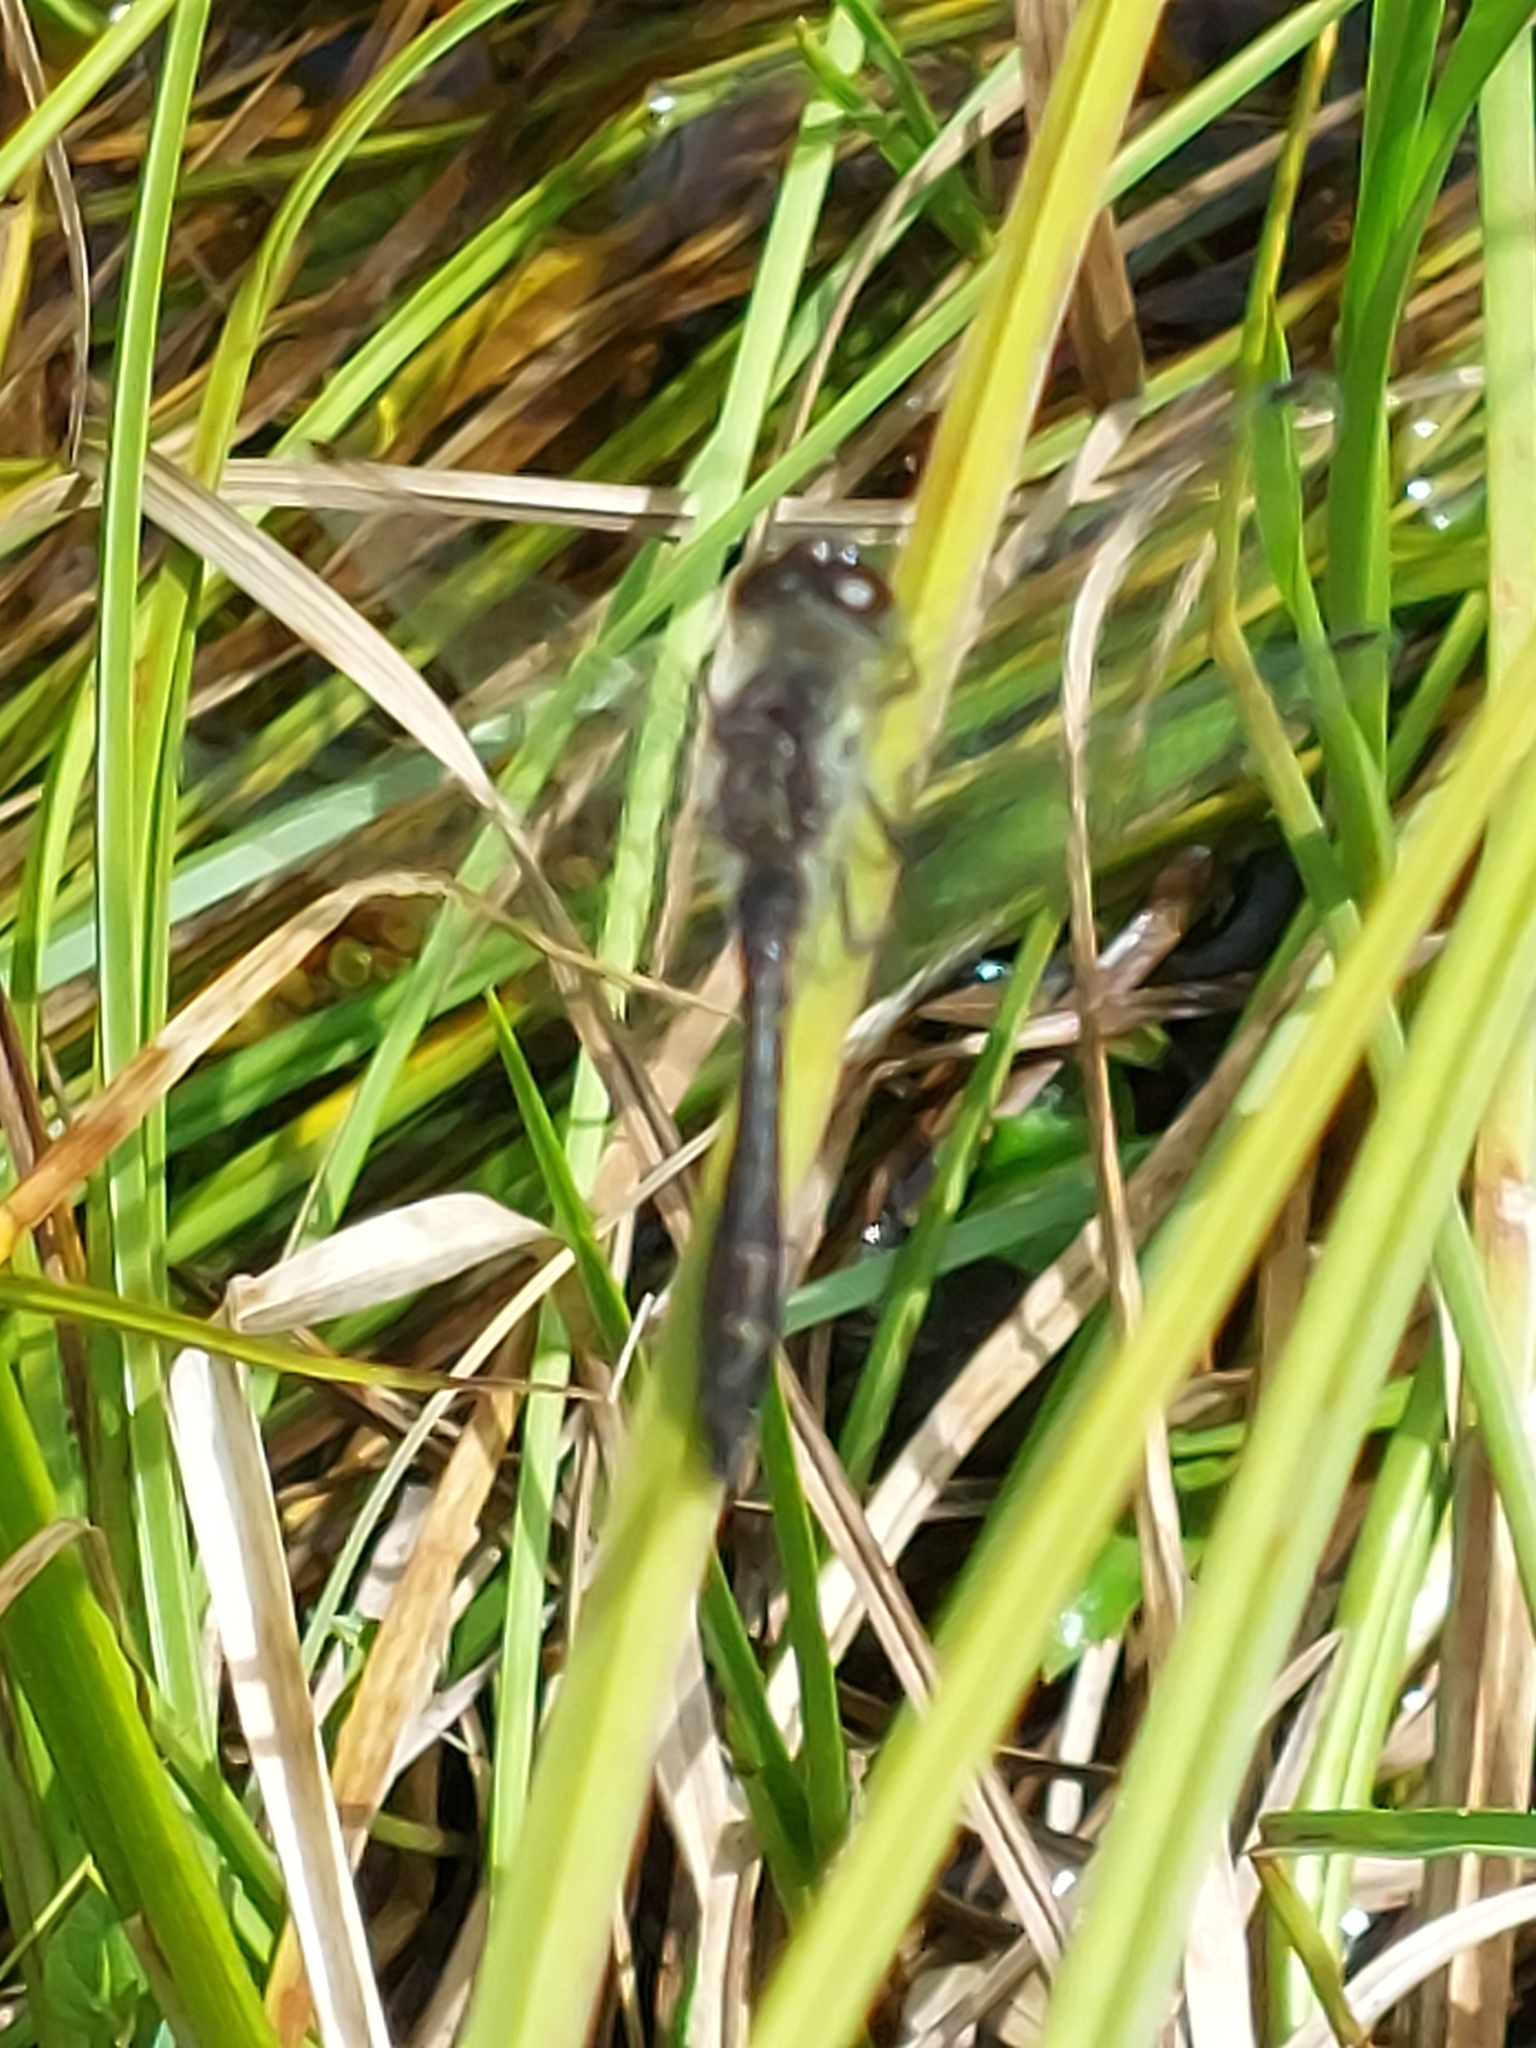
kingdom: Animalia
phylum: Arthropoda
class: Insecta
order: Odonata
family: Libellulidae
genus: Sympetrum
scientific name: Sympetrum danae
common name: Black darter
